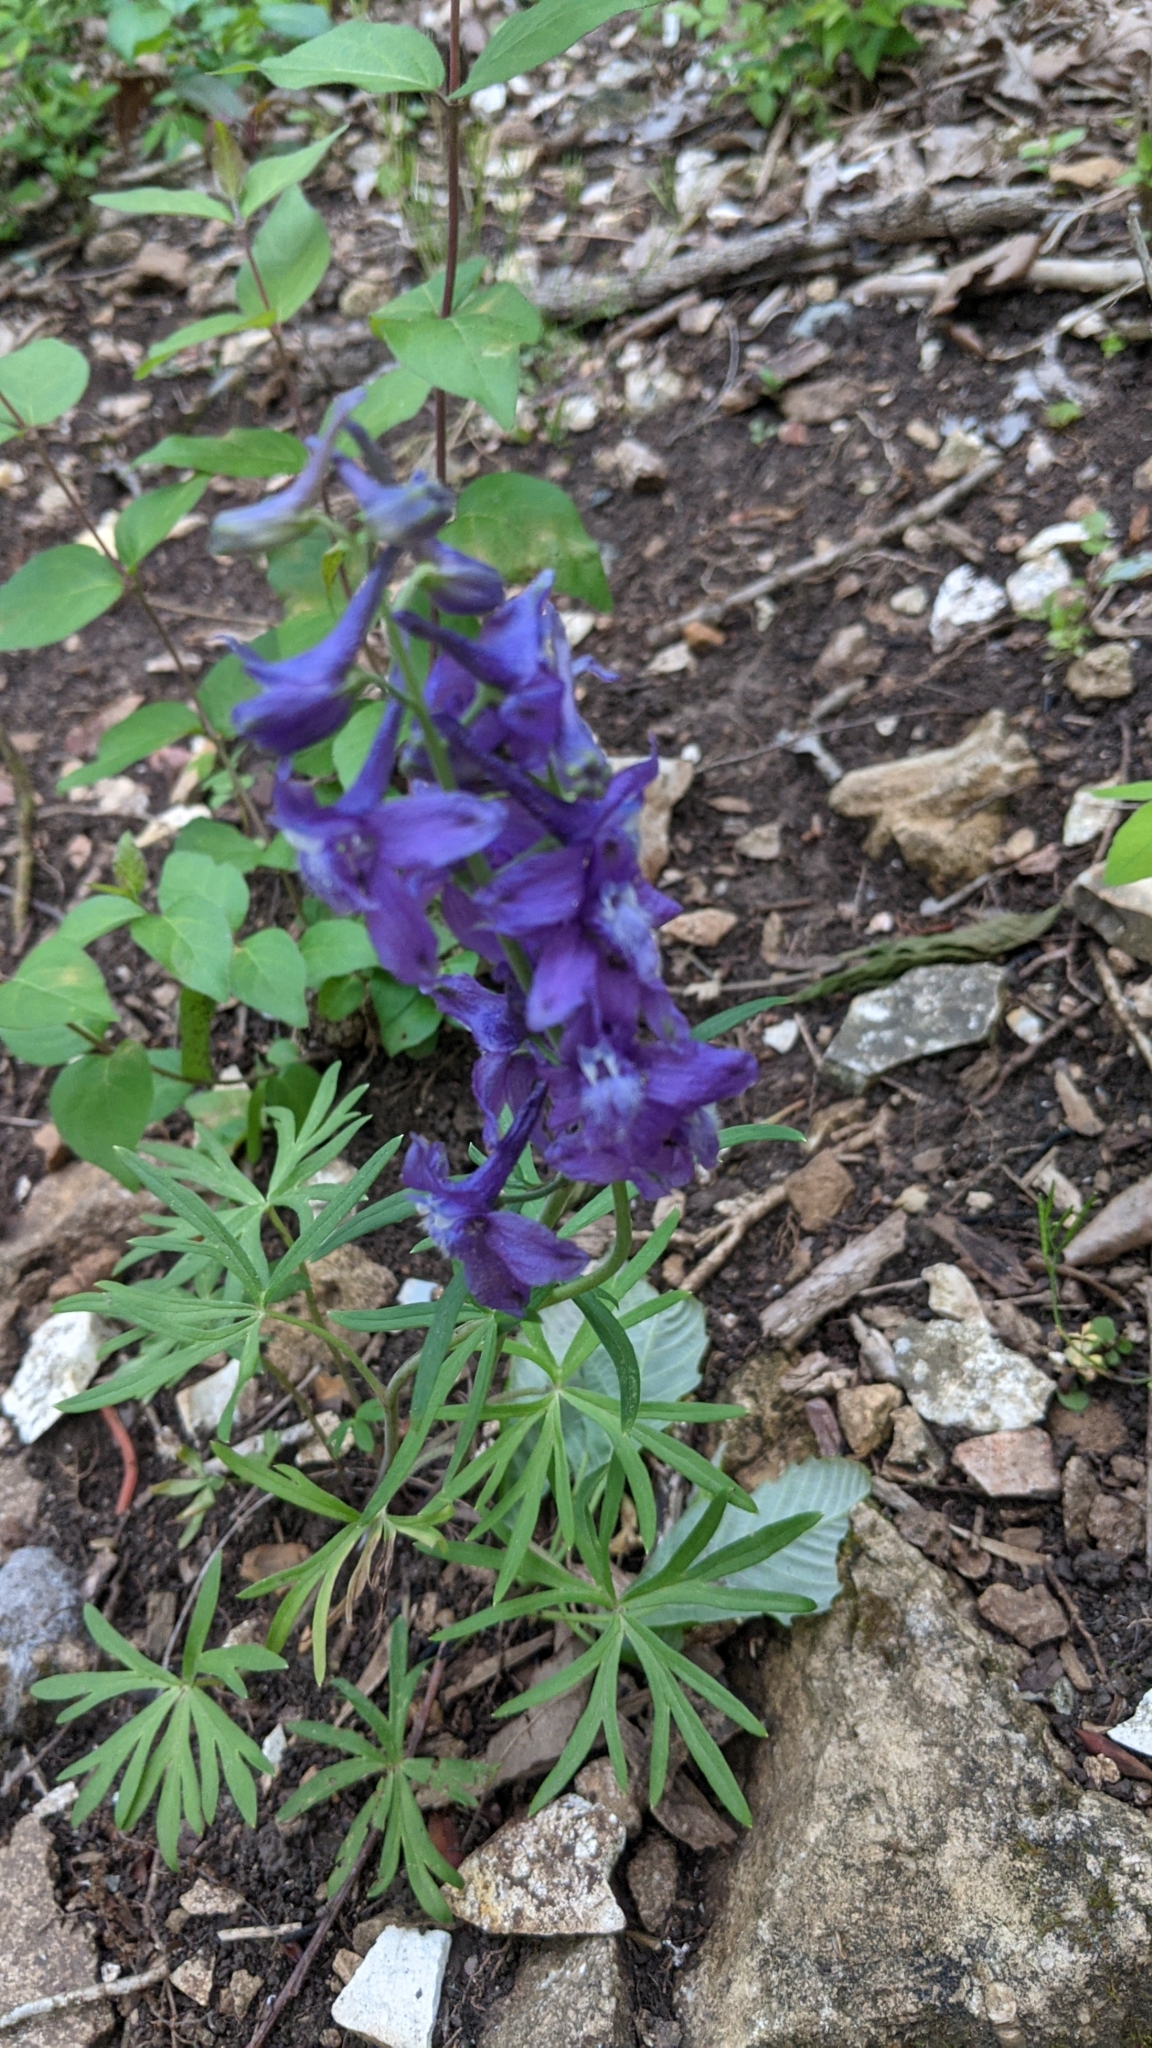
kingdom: Plantae
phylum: Tracheophyta
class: Magnoliopsida
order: Ranunculales
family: Ranunculaceae
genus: Delphinium
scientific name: Delphinium tricorne
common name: Dwarf larkspur
